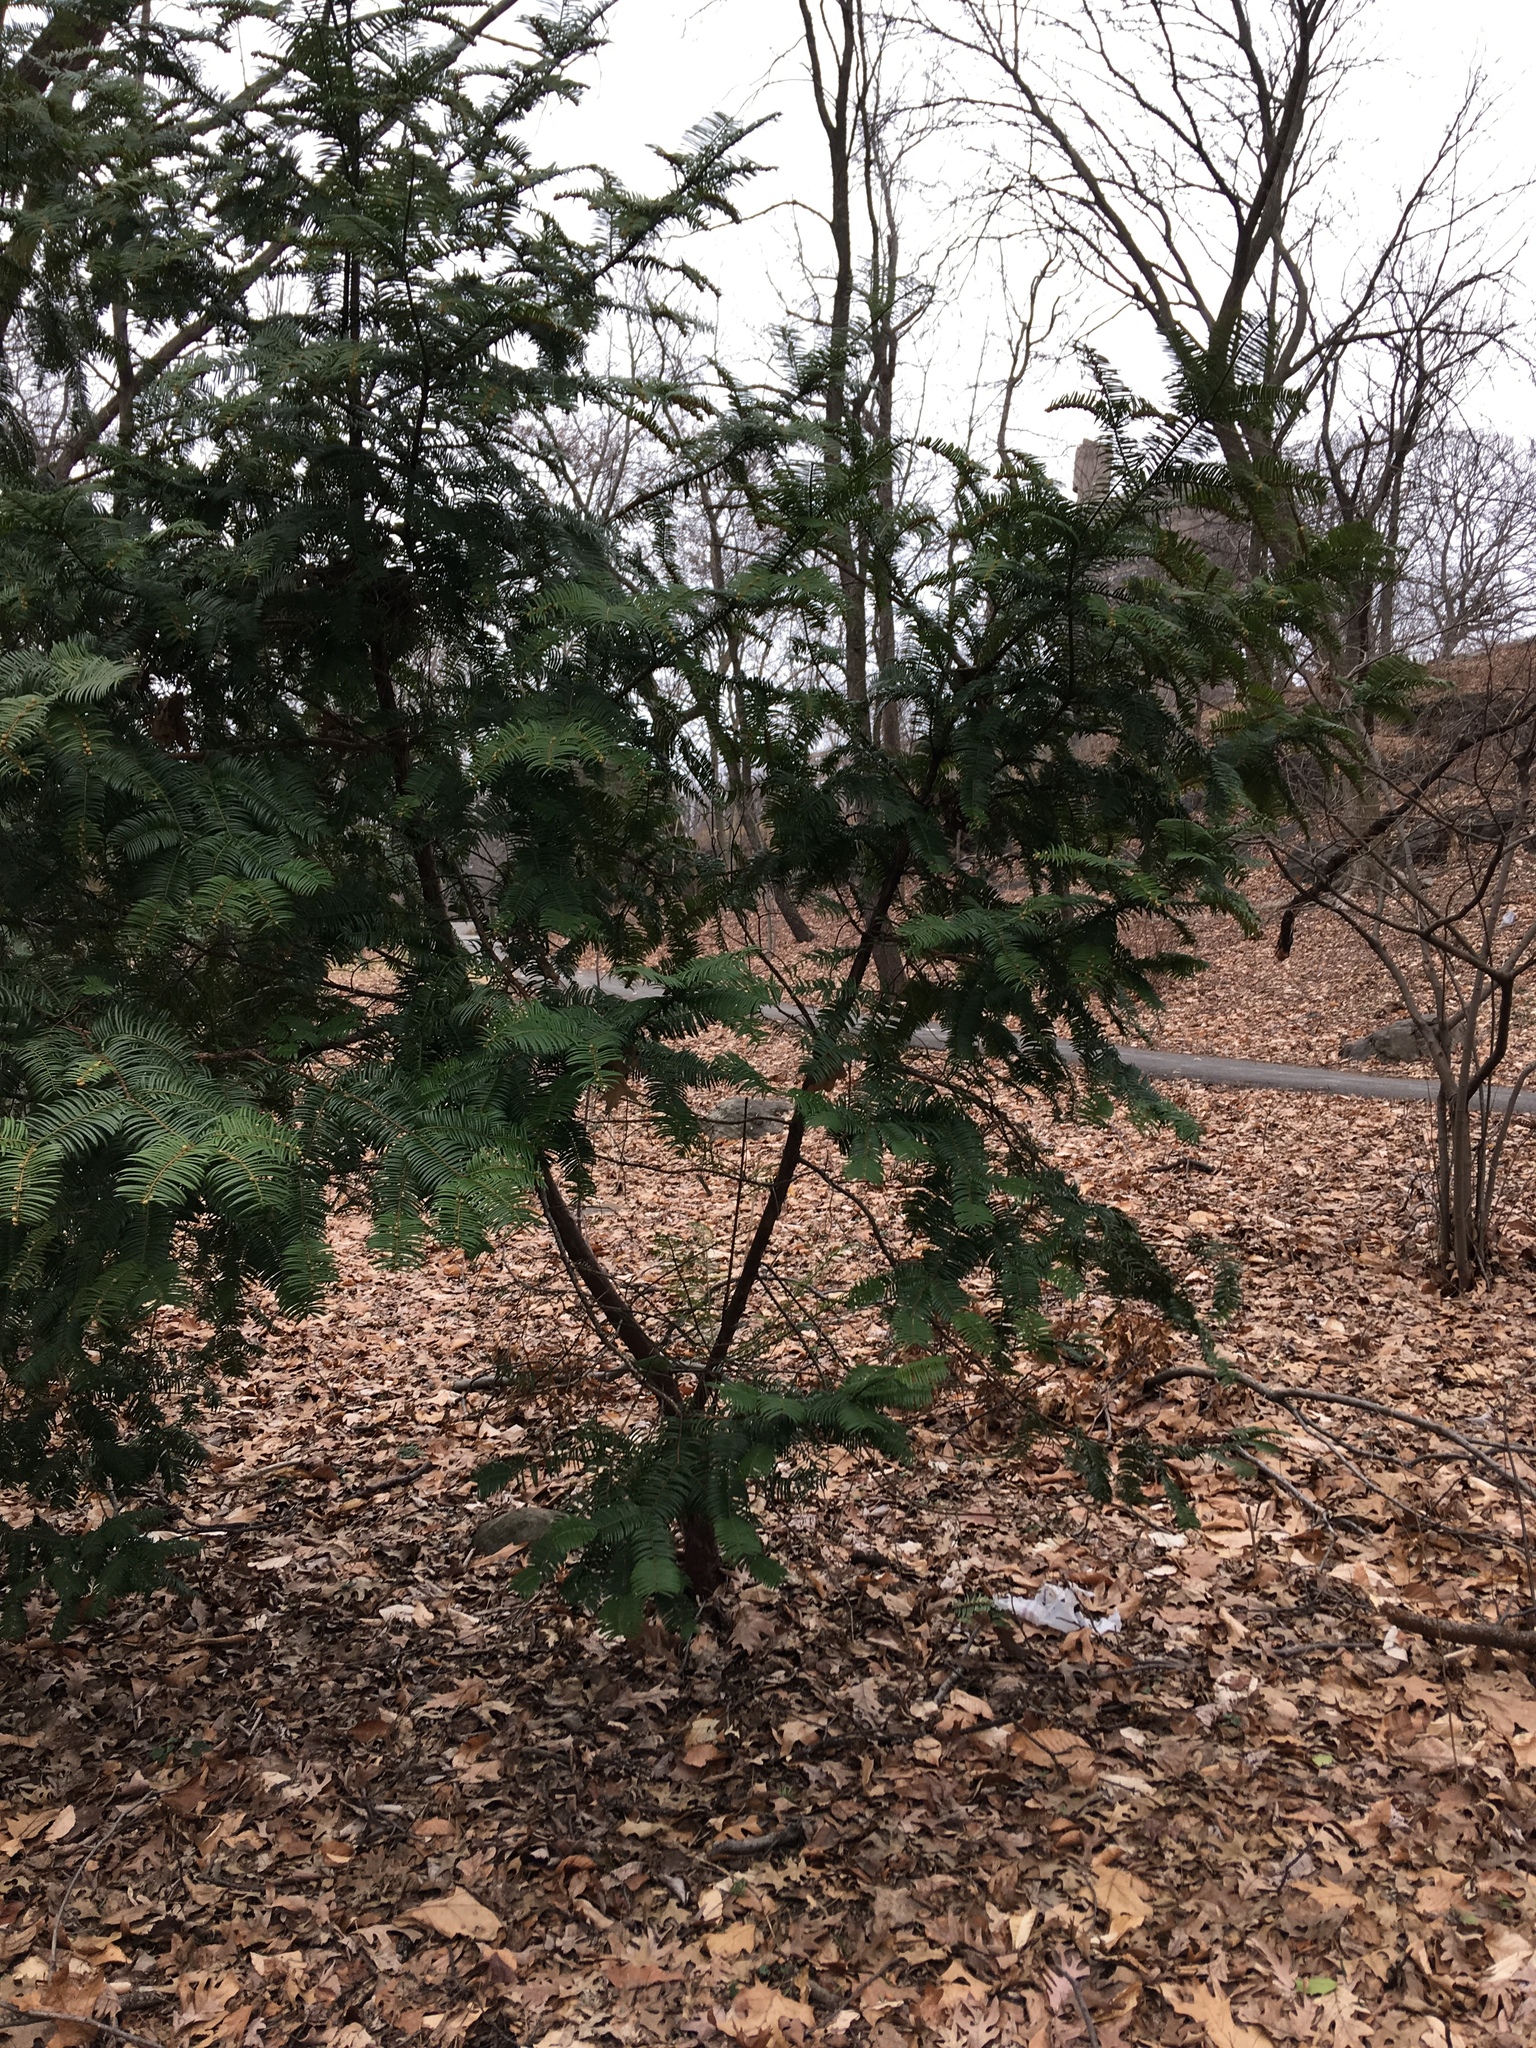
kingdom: Plantae
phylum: Tracheophyta
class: Pinopsida
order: Pinales
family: Cephalotaxaceae
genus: Cephalotaxus
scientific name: Cephalotaxus harringtonia
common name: Japanese plum-yew
